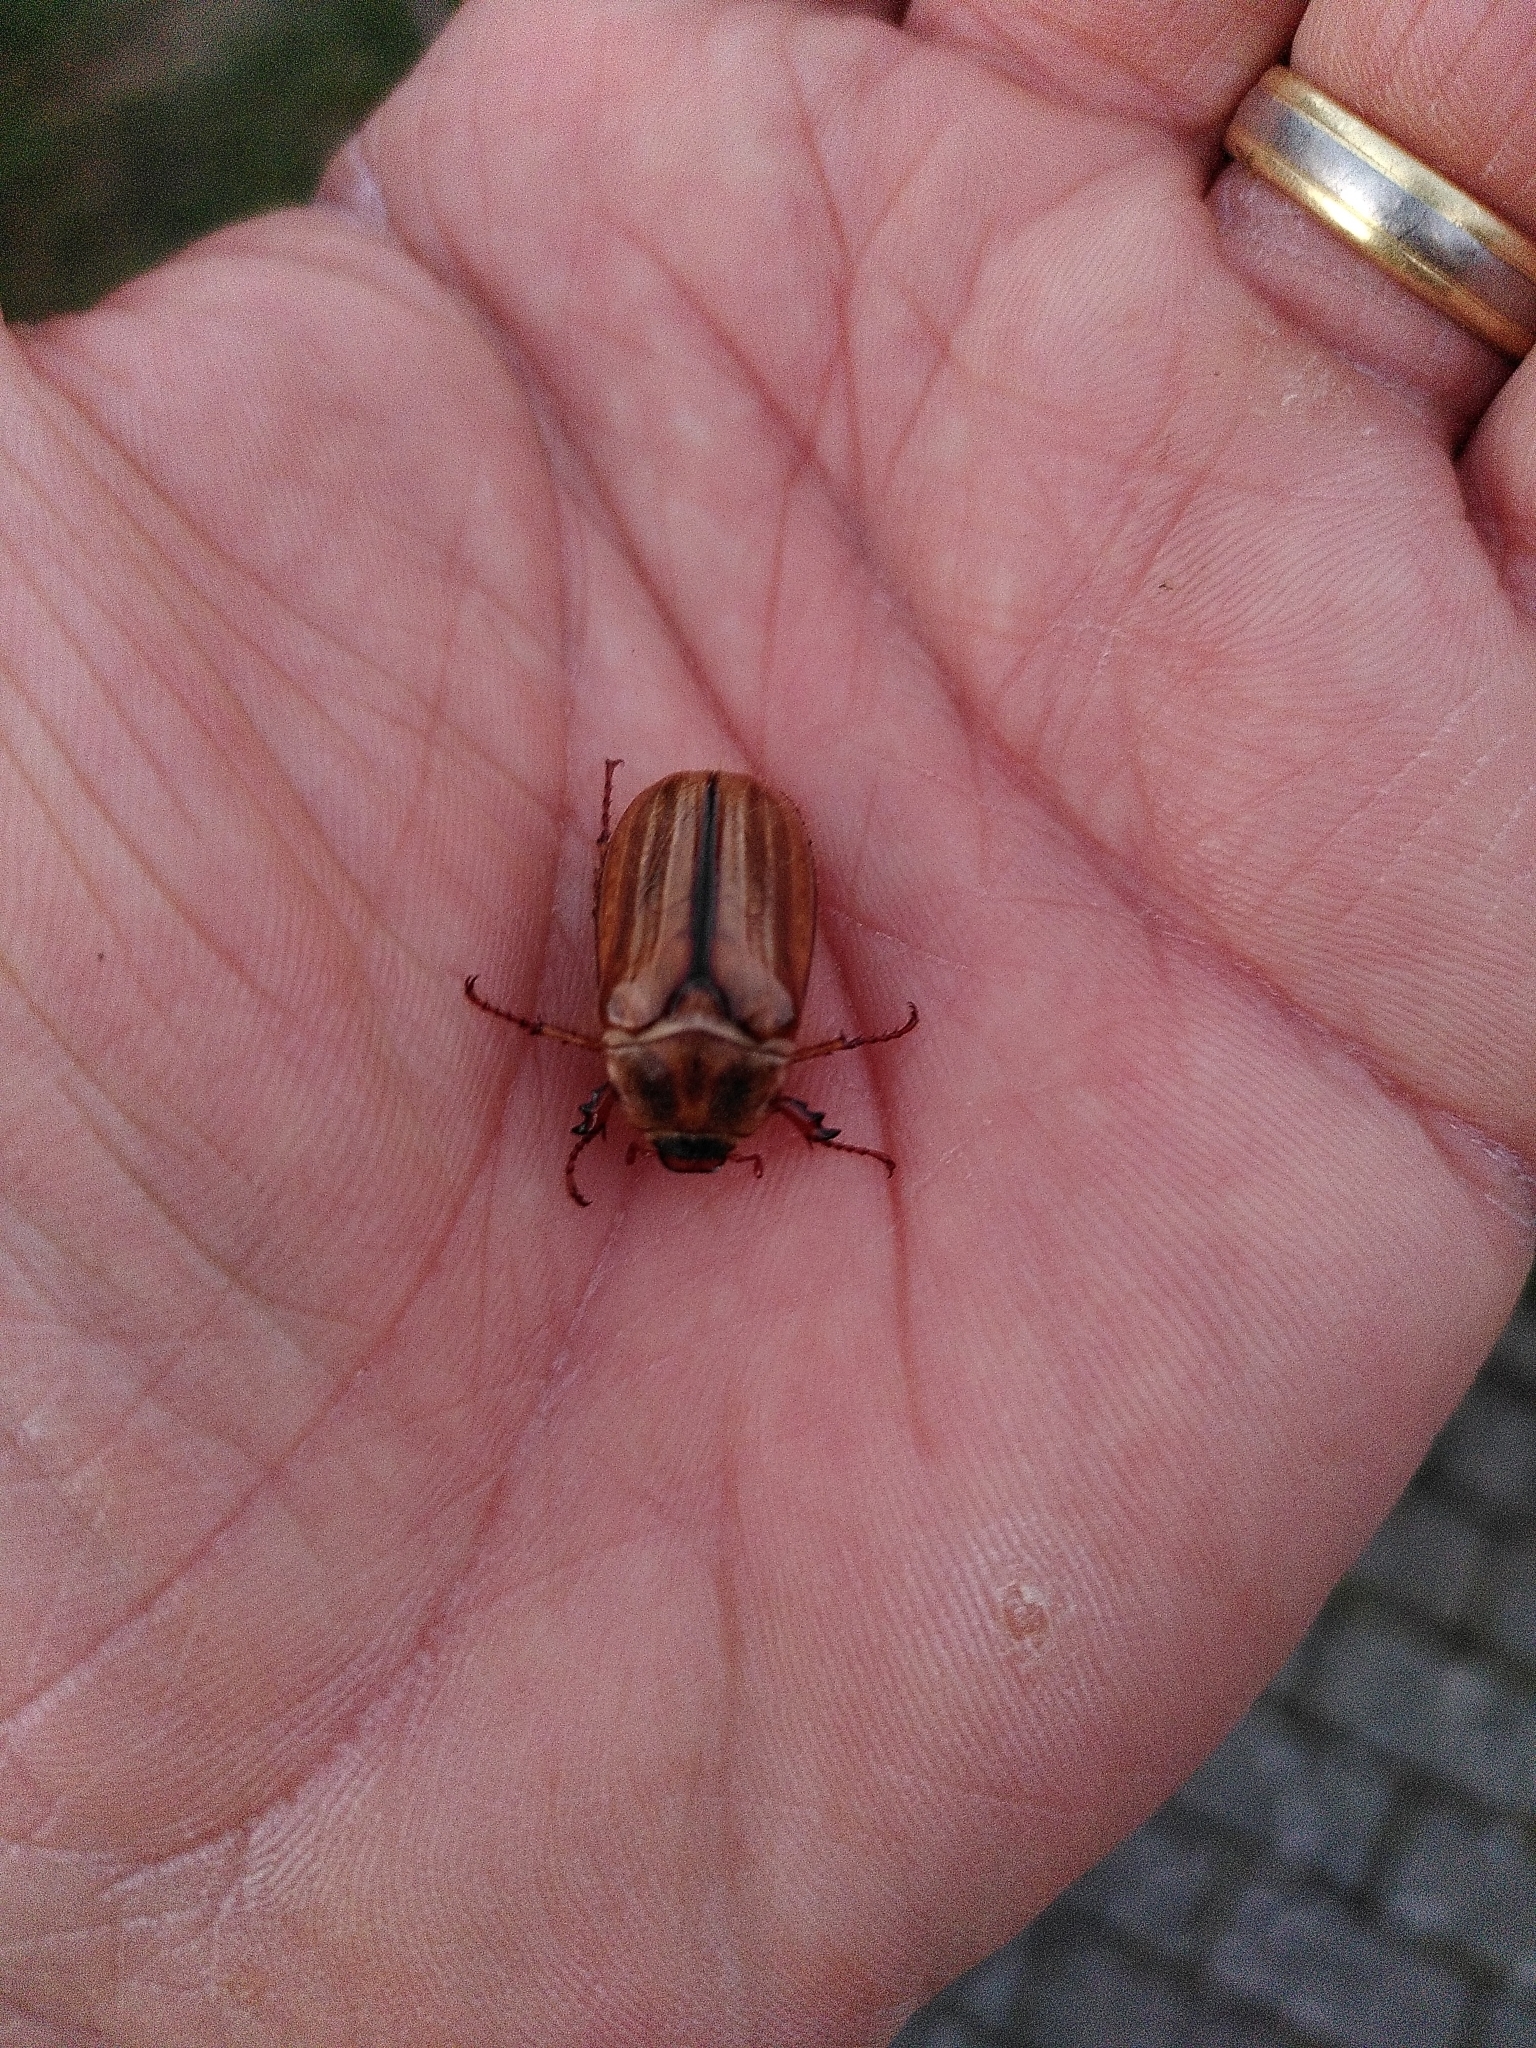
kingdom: Animalia
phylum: Arthropoda
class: Insecta
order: Coleoptera
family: Scarabaeidae
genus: Amphimallon
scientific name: Amphimallon solstitiale
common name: Summer chafer
